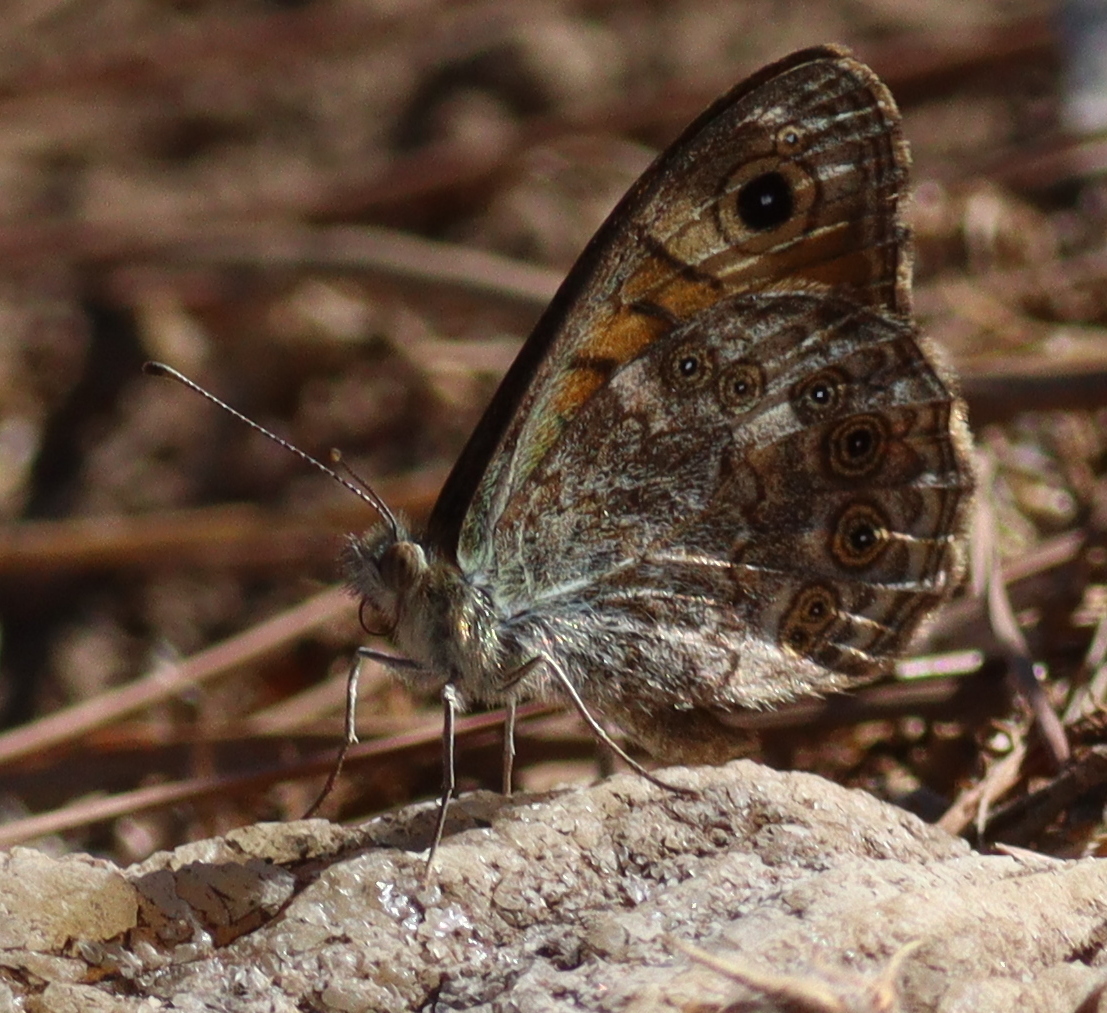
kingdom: Animalia
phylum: Arthropoda
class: Insecta
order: Lepidoptera
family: Nymphalidae
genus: Pararge
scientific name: Pararge Lasiommata megera
